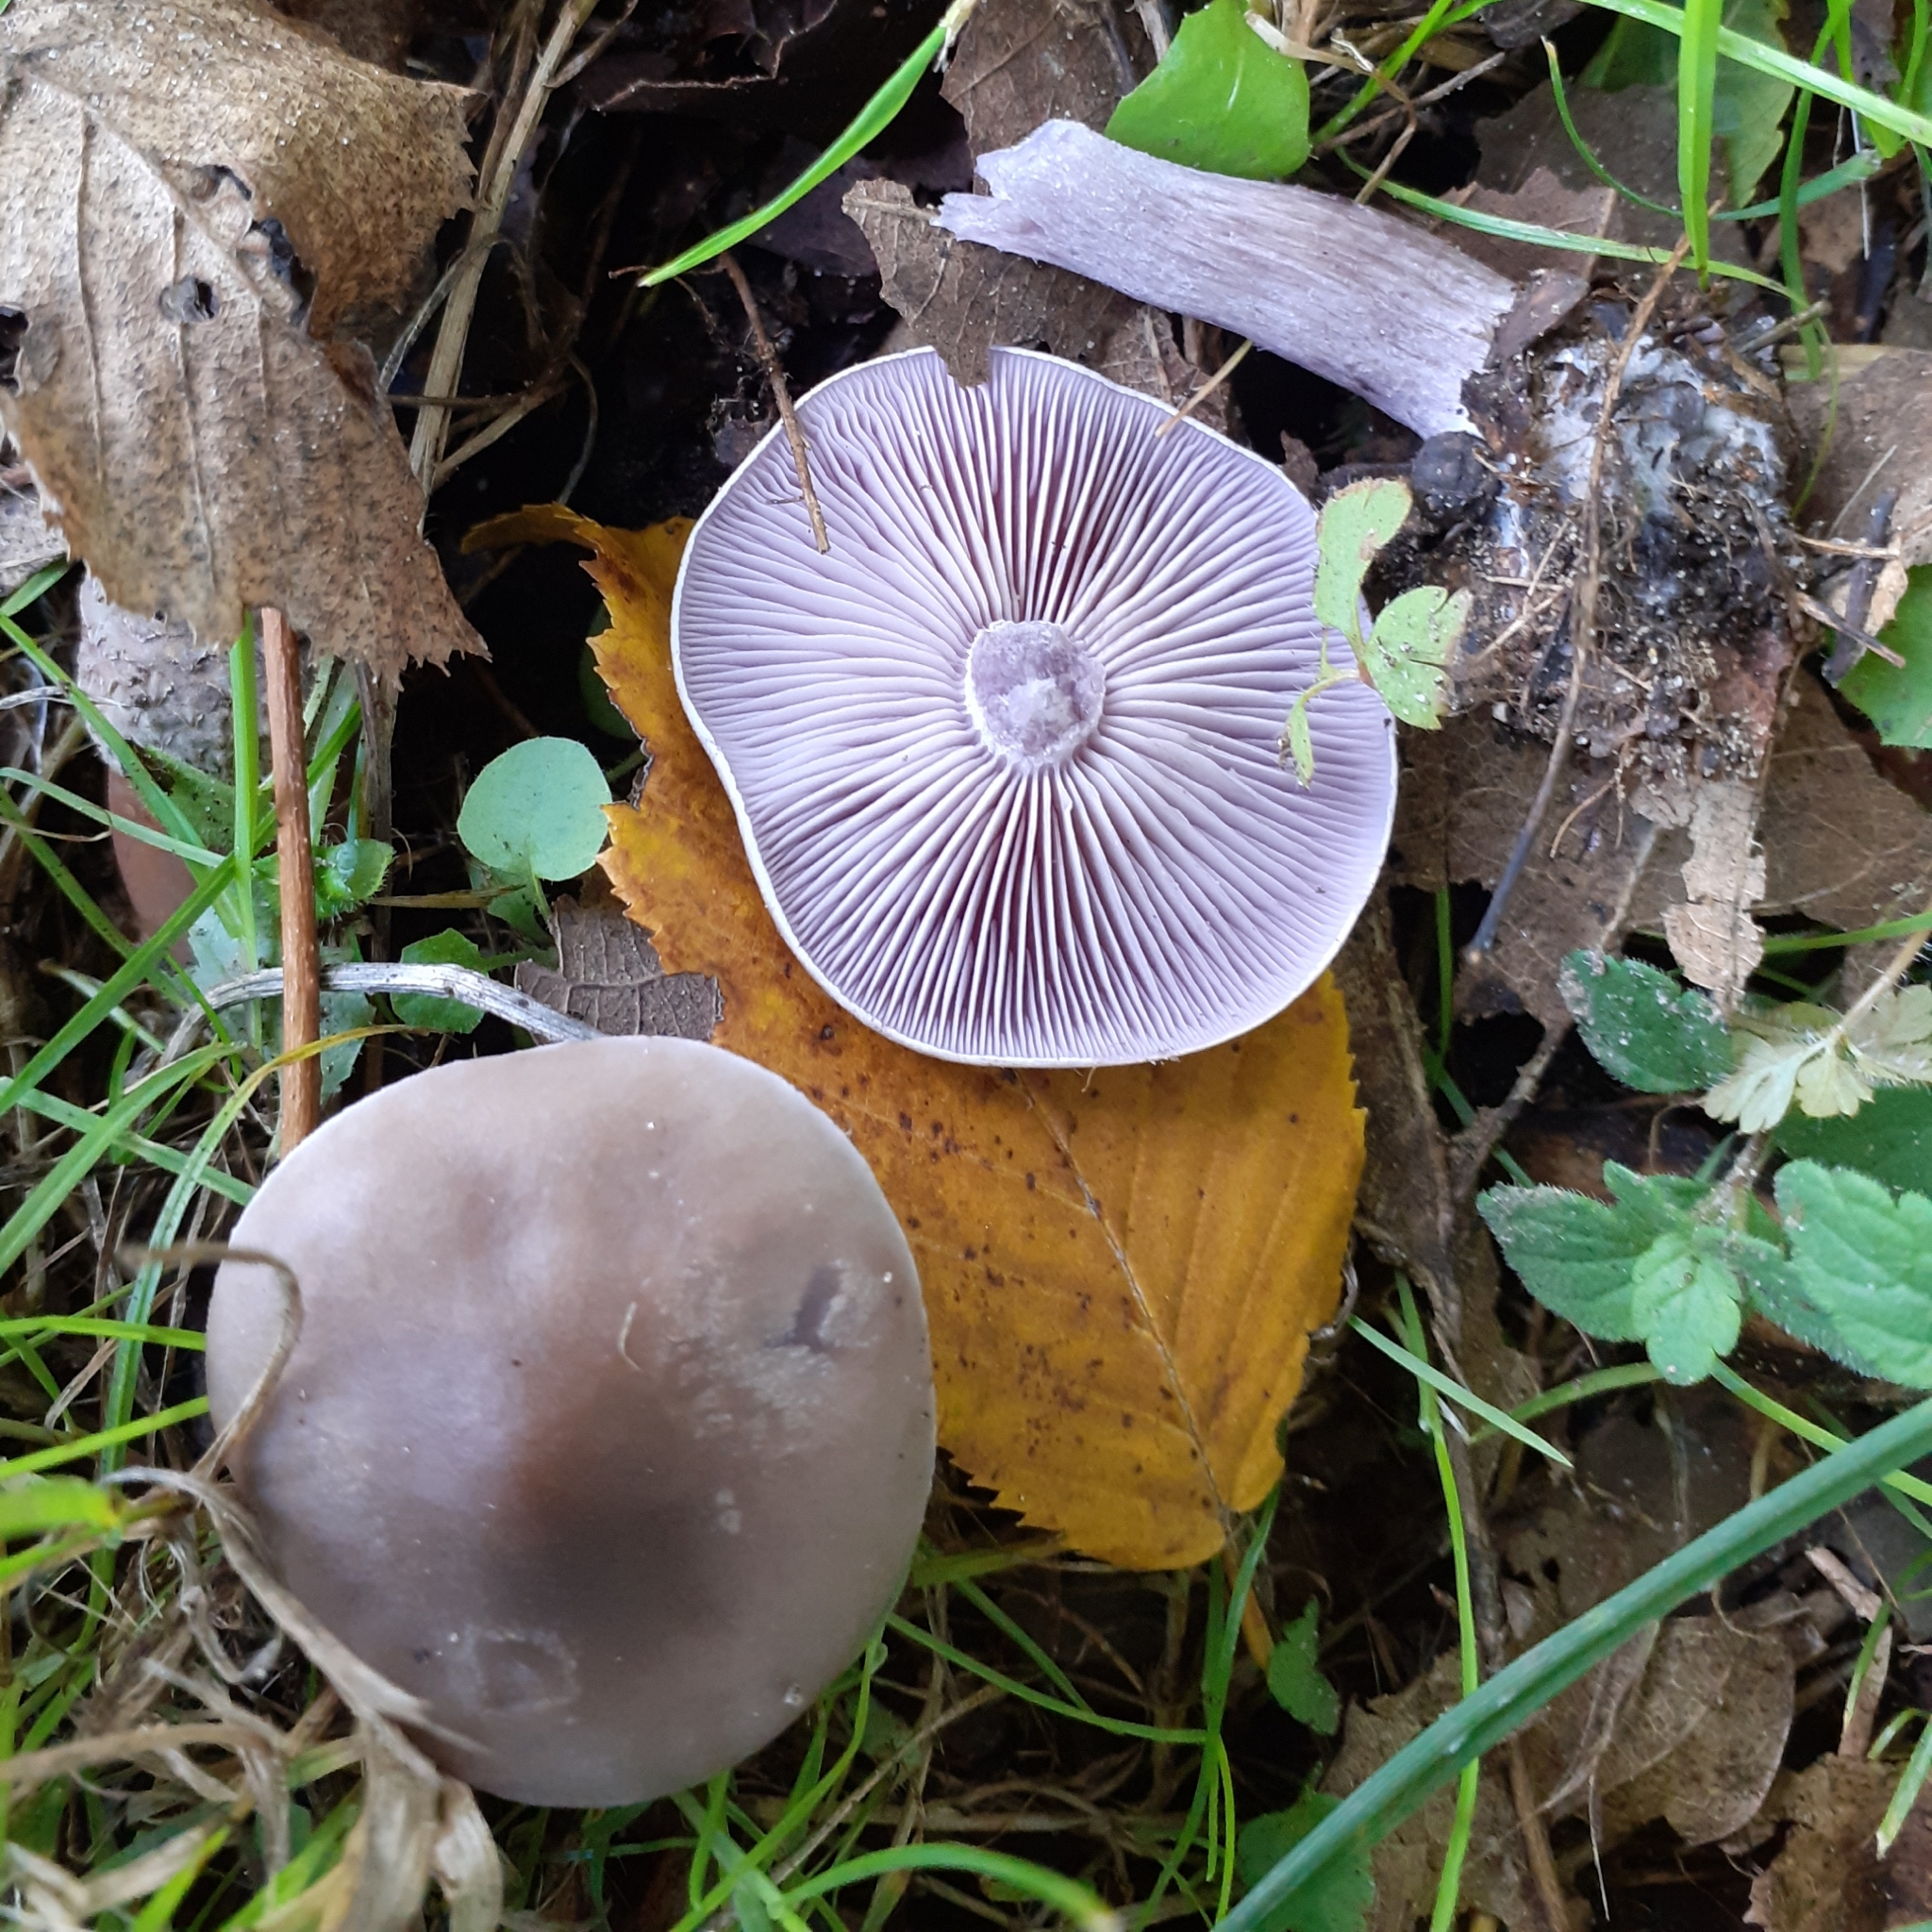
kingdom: Fungi
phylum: Basidiomycota
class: Agaricomycetes
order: Agaricales
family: Tricholomataceae
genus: Collybia
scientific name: Collybia
